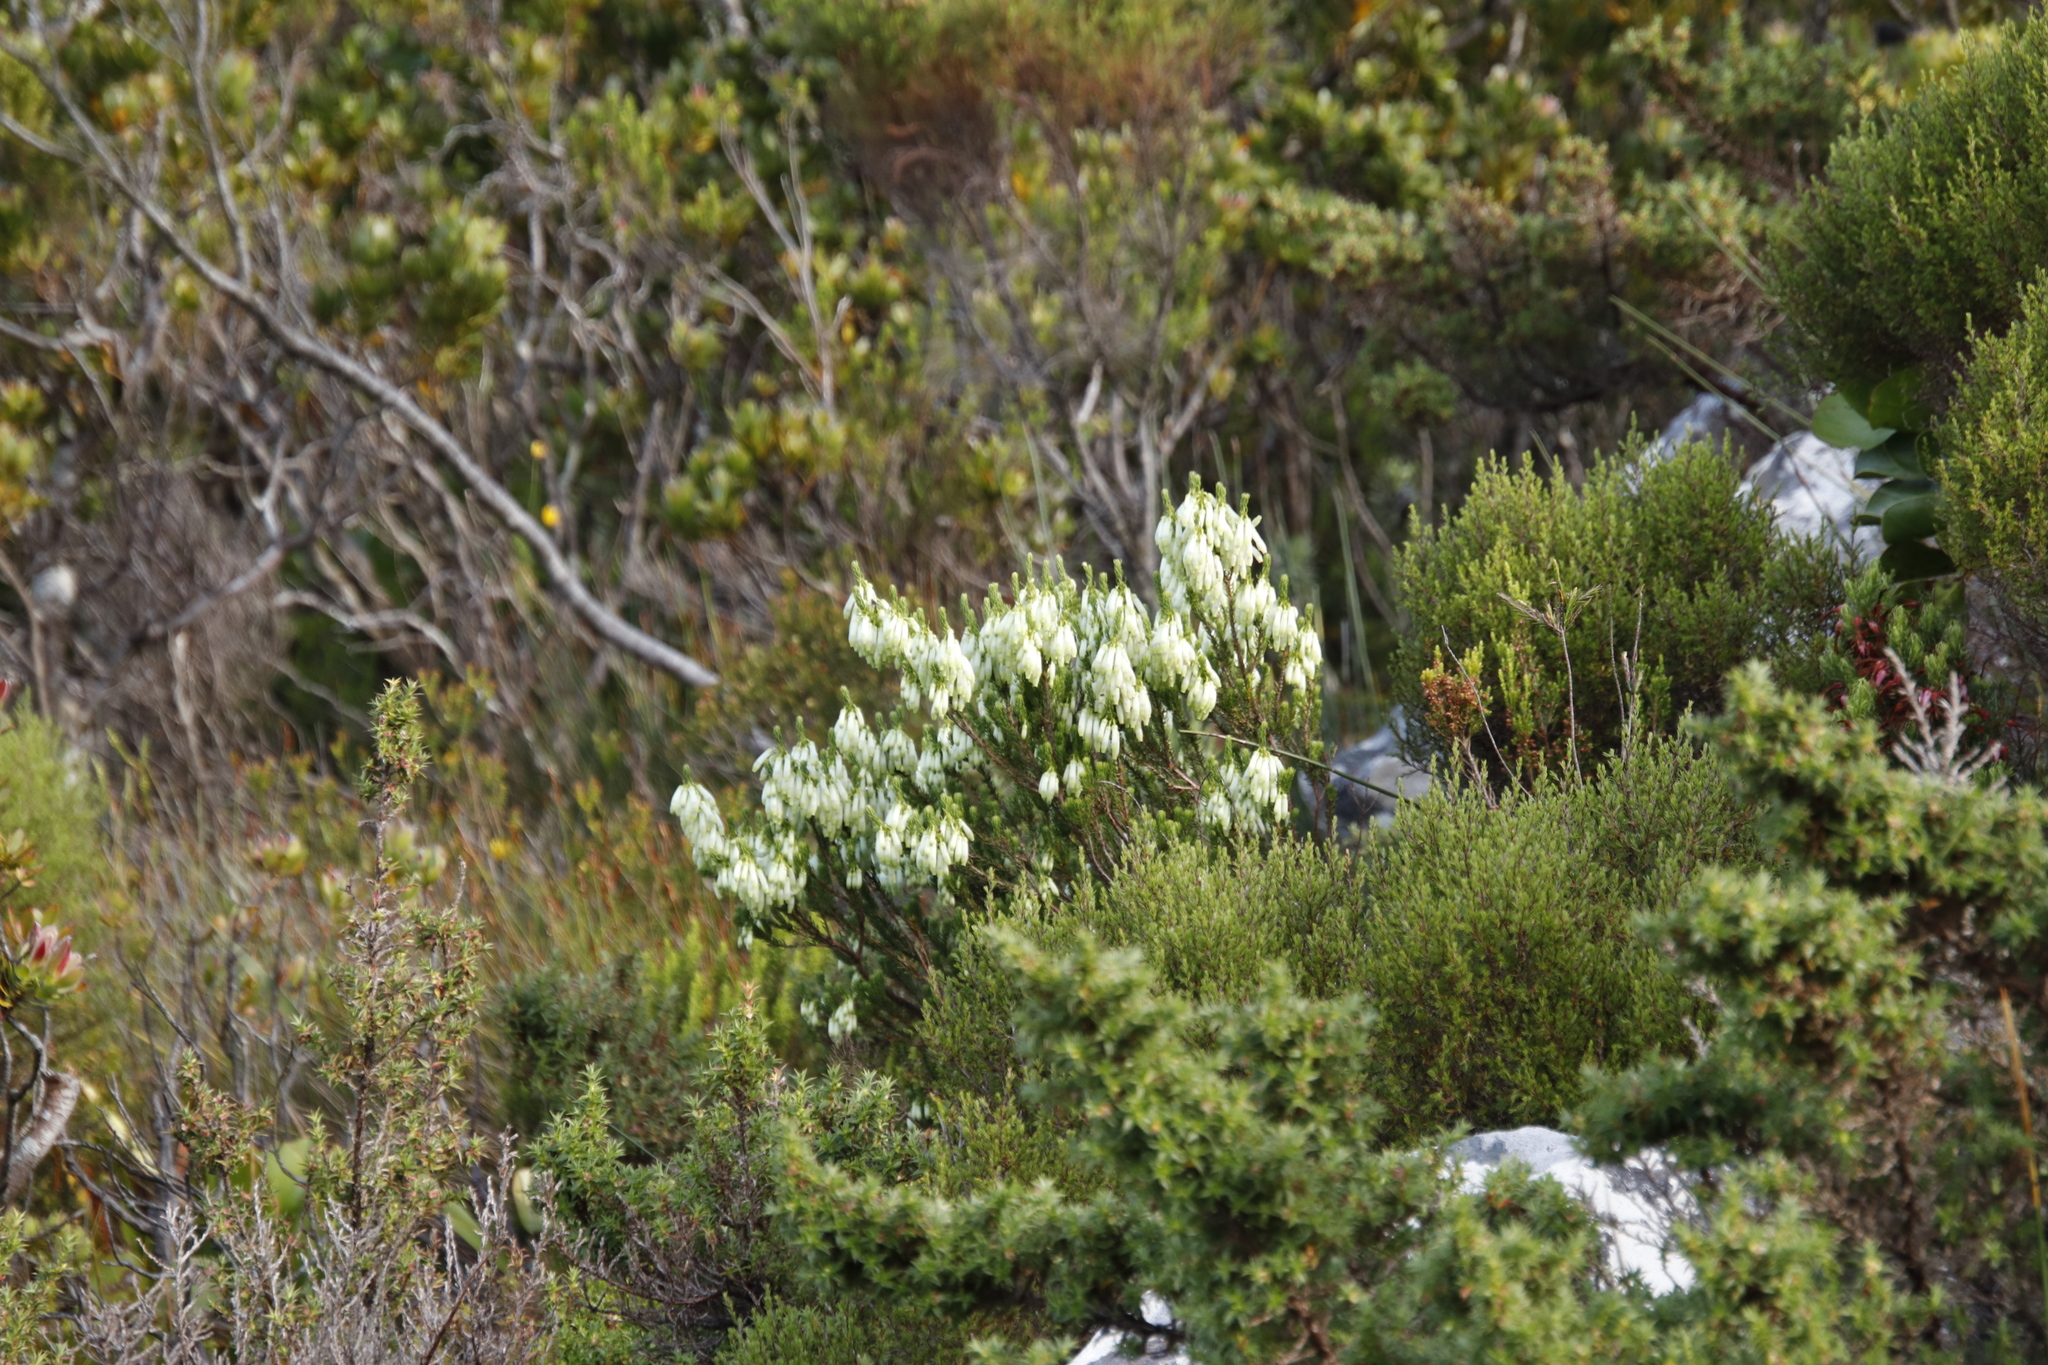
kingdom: Plantae
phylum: Tracheophyta
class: Magnoliopsida
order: Ericales
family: Ericaceae
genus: Erica
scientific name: Erica mammosa
